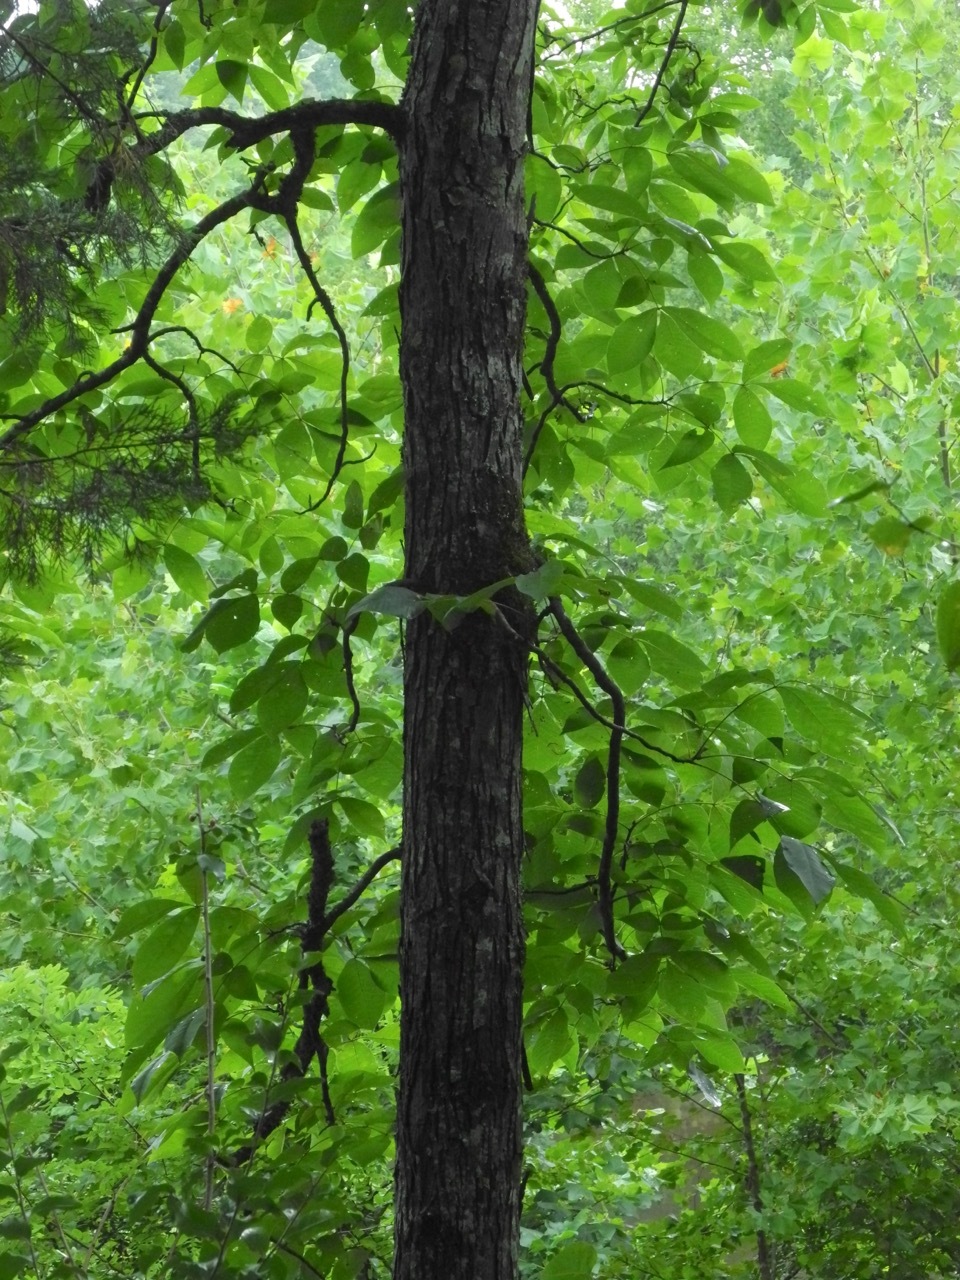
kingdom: Plantae
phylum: Tracheophyta
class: Magnoliopsida
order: Fagales
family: Juglandaceae
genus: Carya
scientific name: Carya ovata
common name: Shagbark hickory
